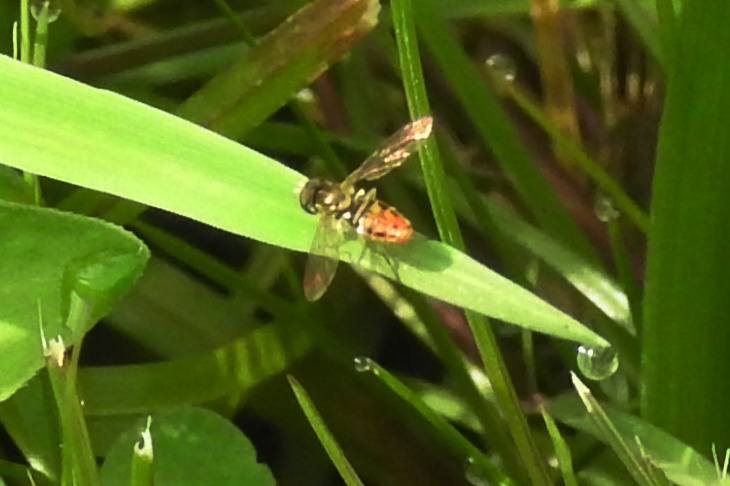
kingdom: Animalia
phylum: Arthropoda
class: Insecta
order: Diptera
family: Syrphidae
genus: Toxomerus
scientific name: Toxomerus marginatus
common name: Syrphid fly
